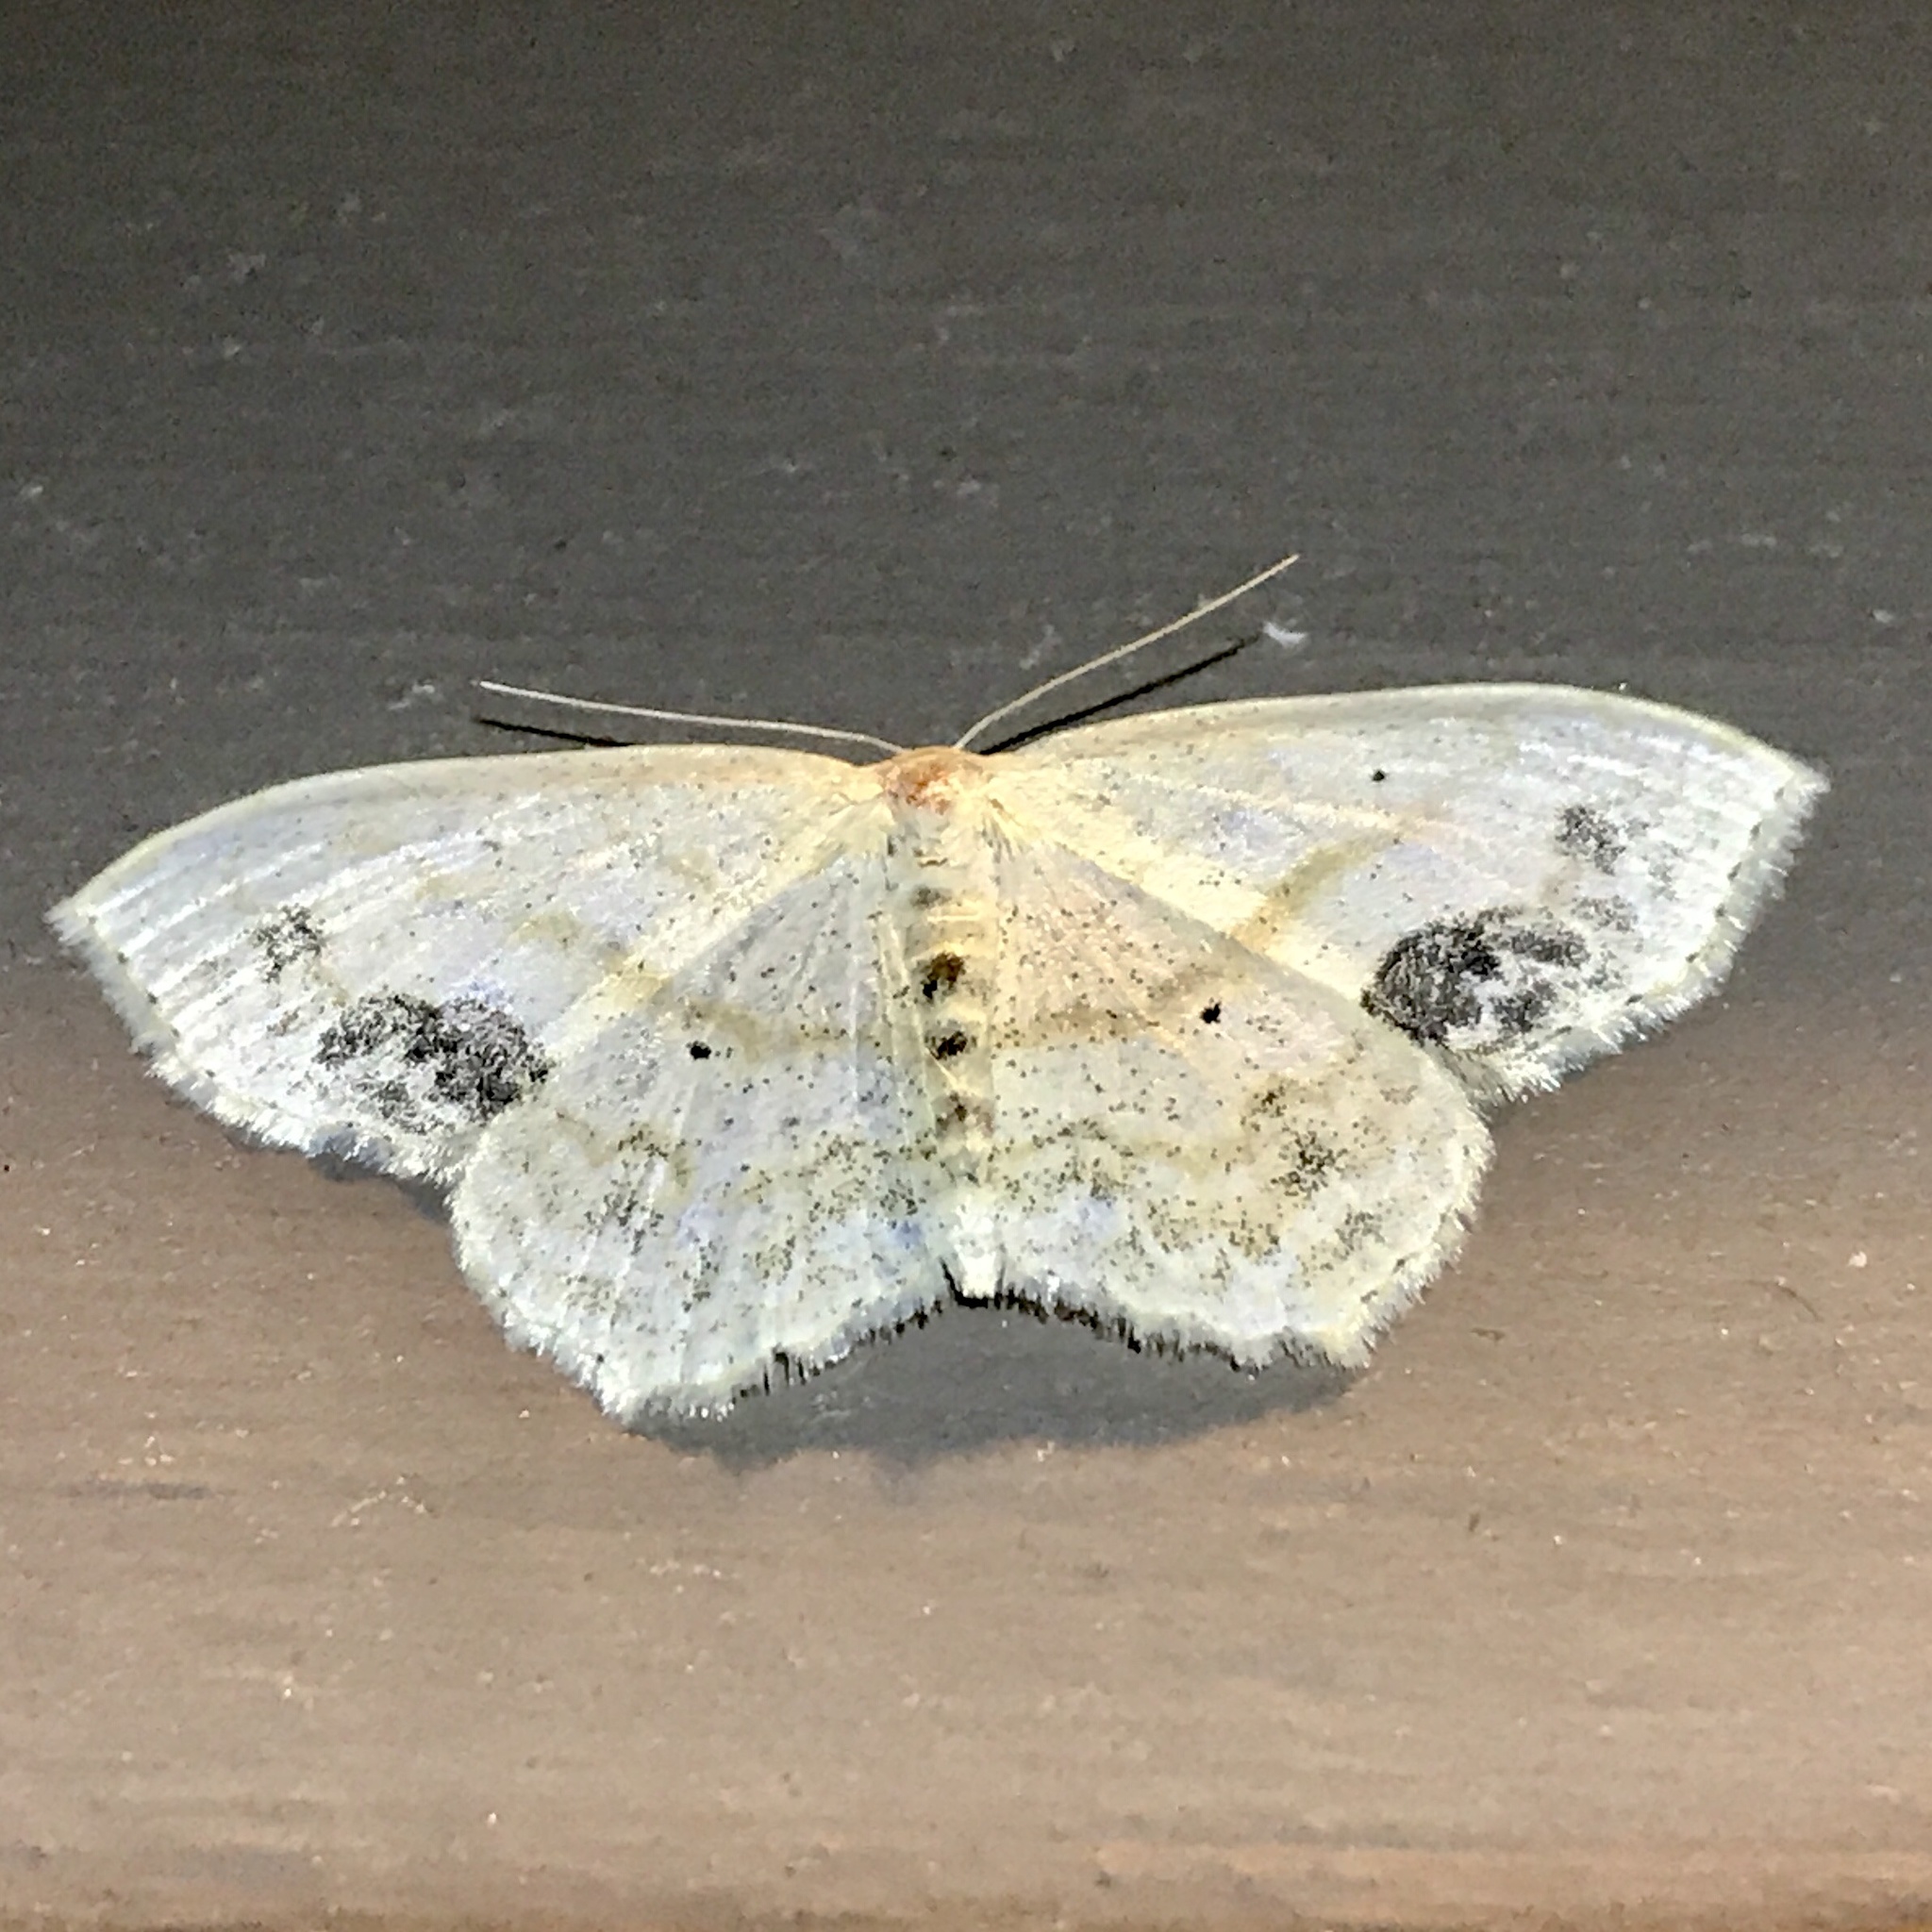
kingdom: Animalia
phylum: Arthropoda
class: Insecta
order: Lepidoptera
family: Geometridae
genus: Scopula
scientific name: Scopula limboundata
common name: Large lace border
